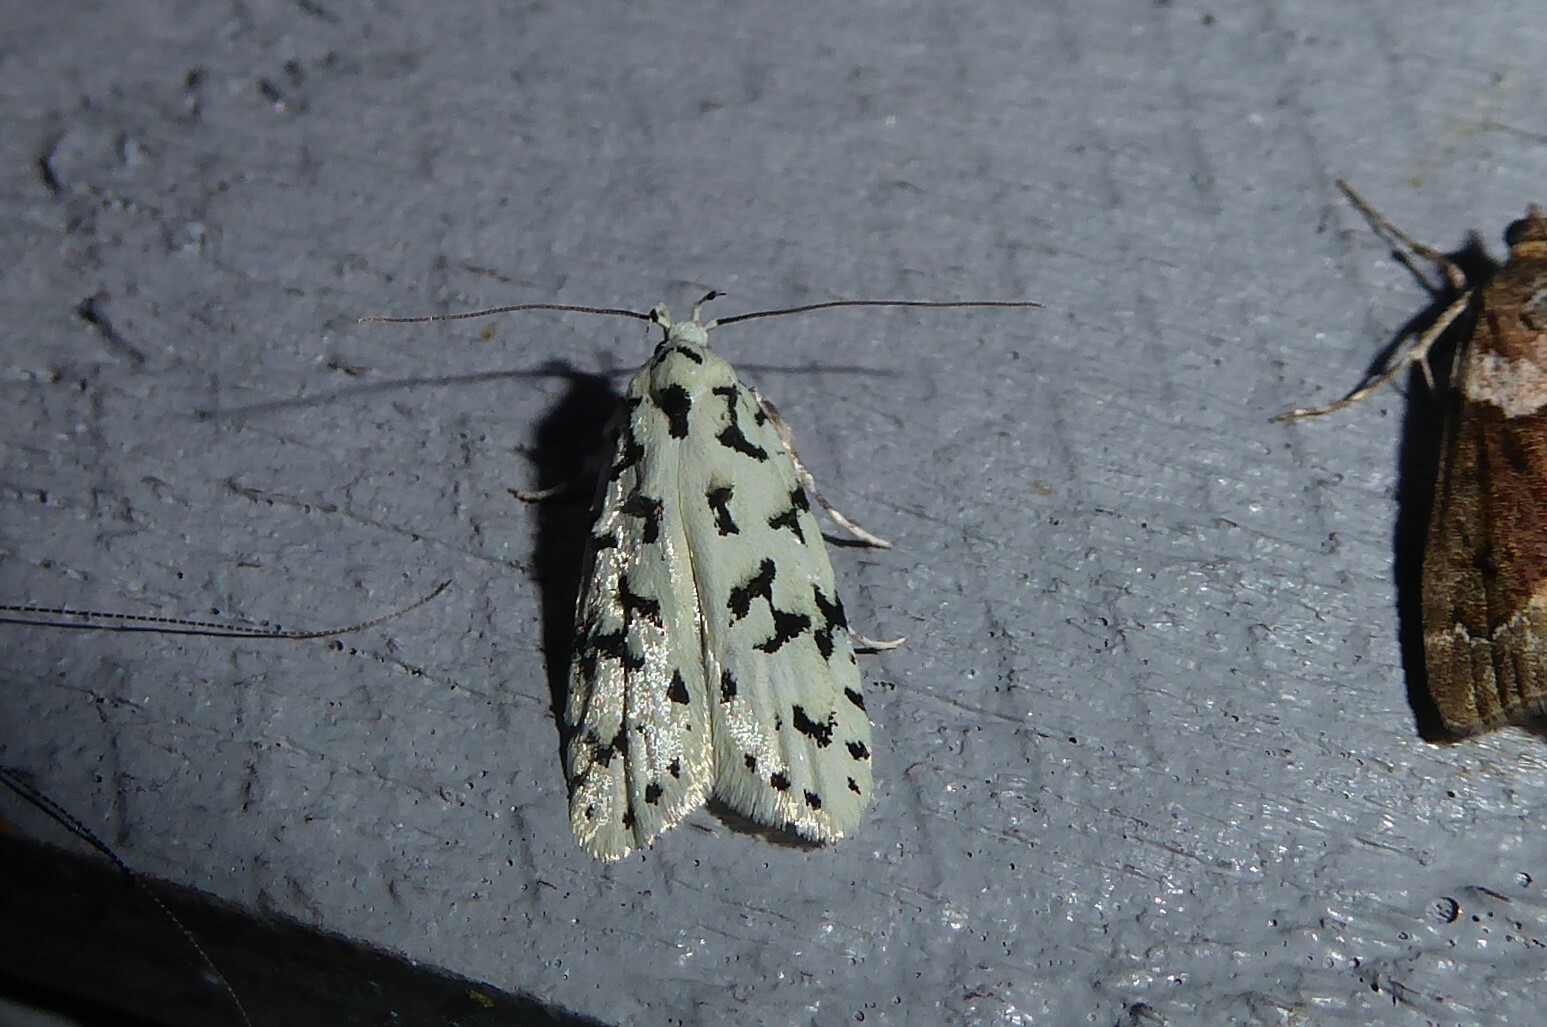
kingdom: Animalia
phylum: Arthropoda
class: Insecta
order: Lepidoptera
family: Oecophoridae
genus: Izatha
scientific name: Izatha huttoni
